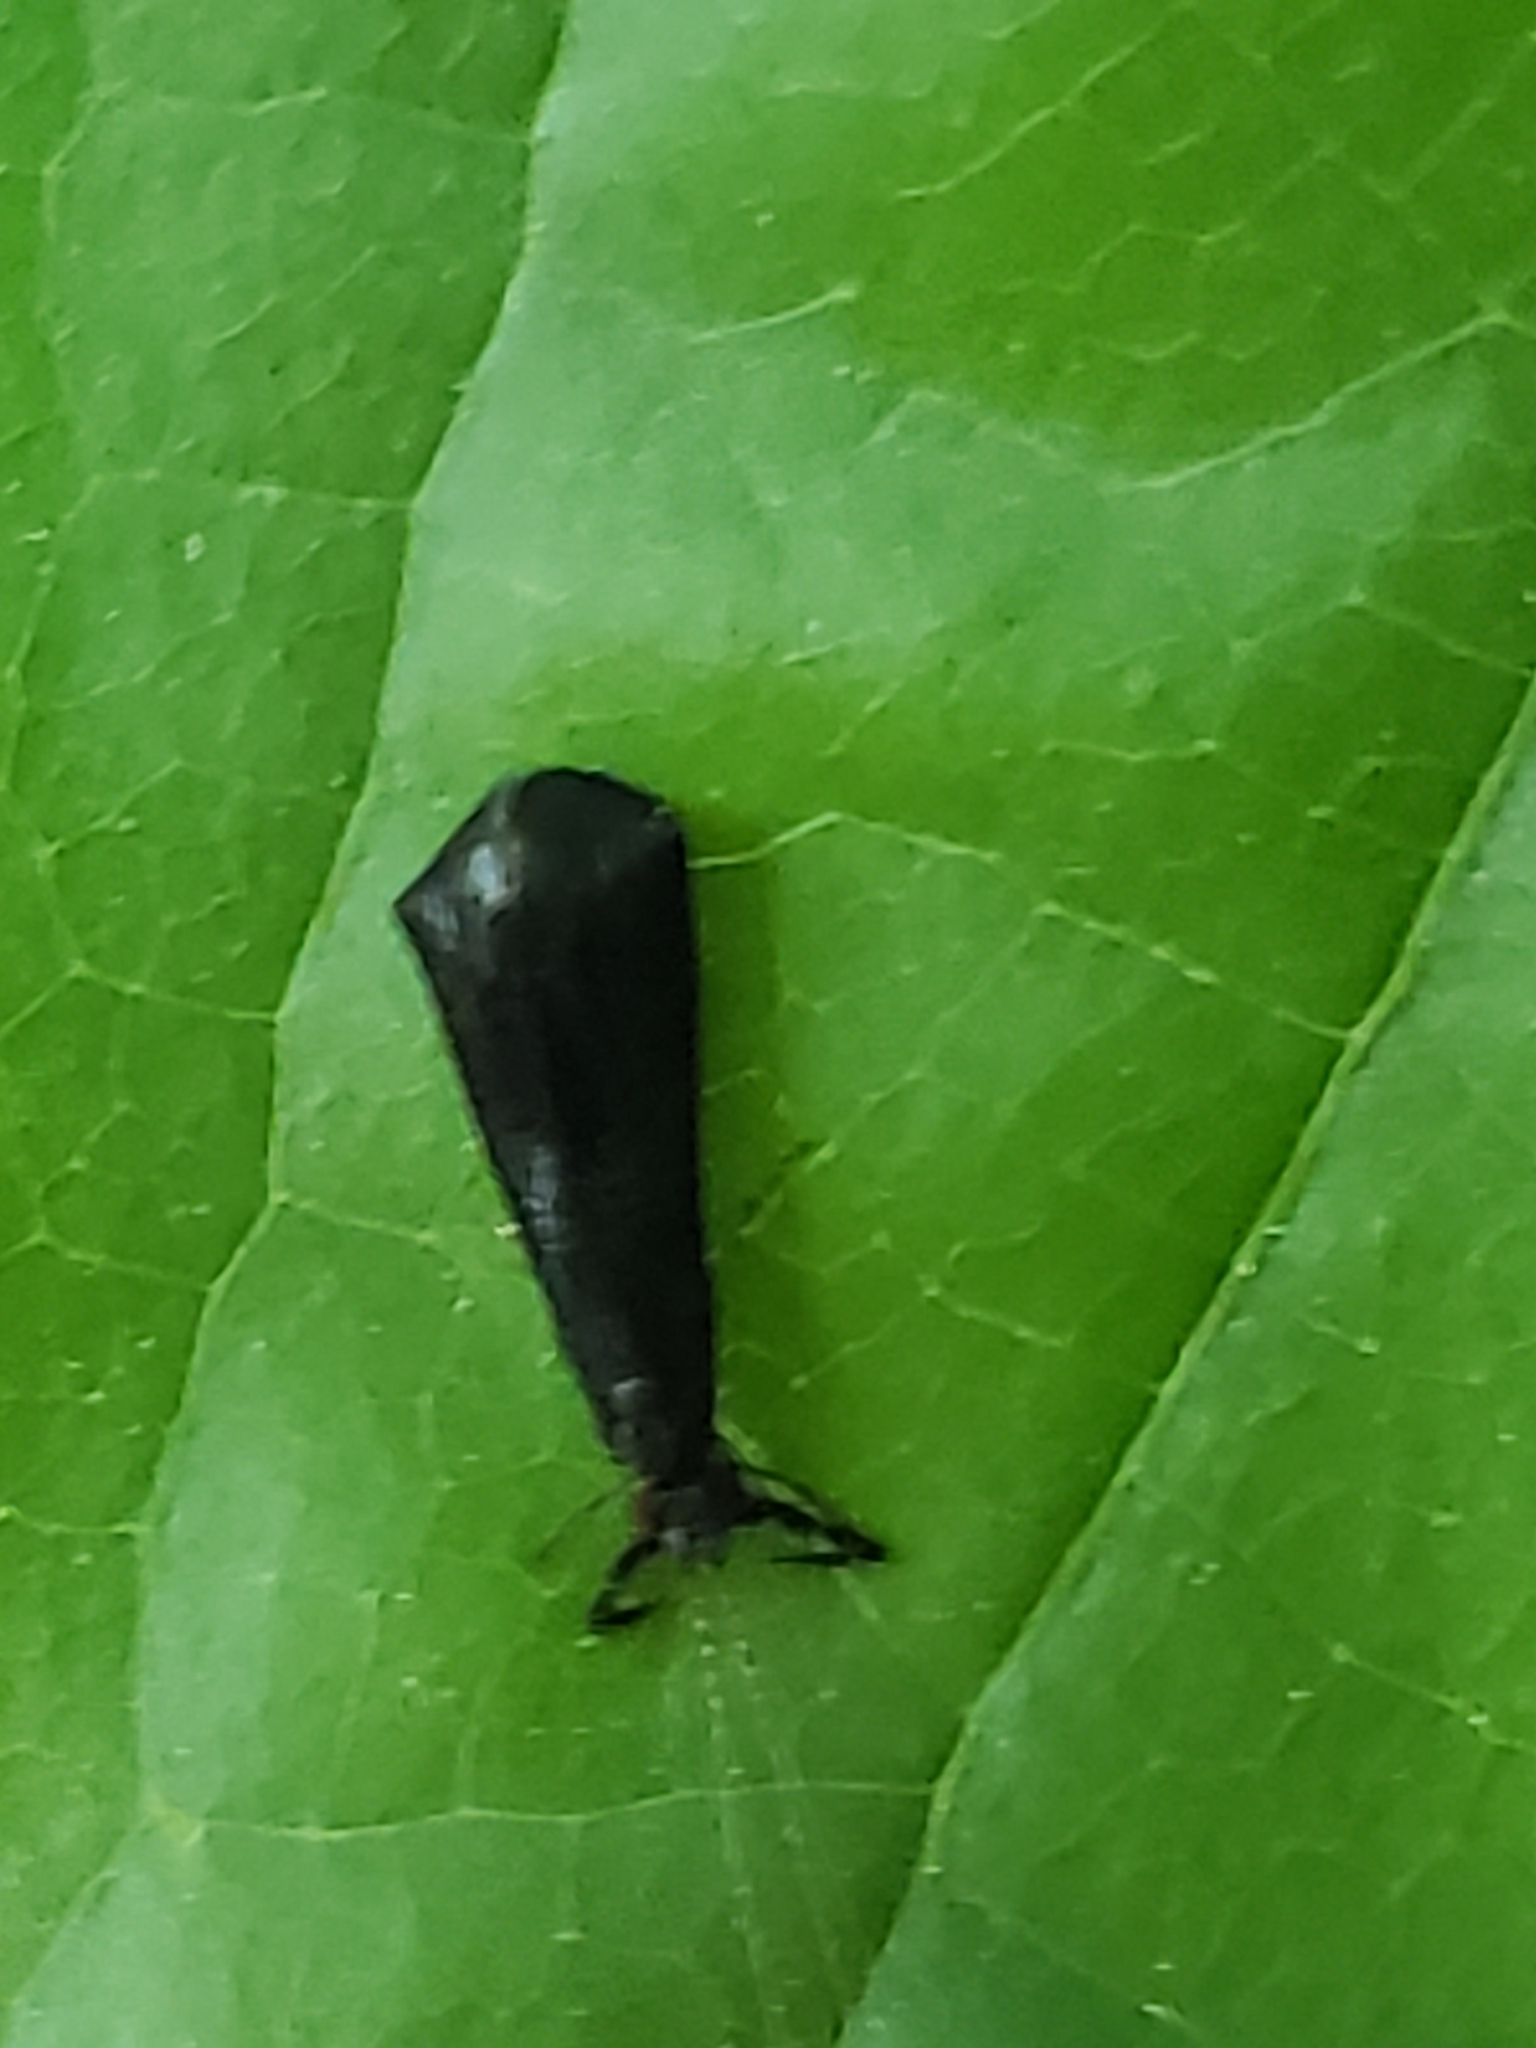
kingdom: Animalia
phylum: Arthropoda
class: Insecta
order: Trichoptera
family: Leptoceridae
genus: Mystacides
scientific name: Mystacides sepulchralis
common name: Black dancer caddisfly
